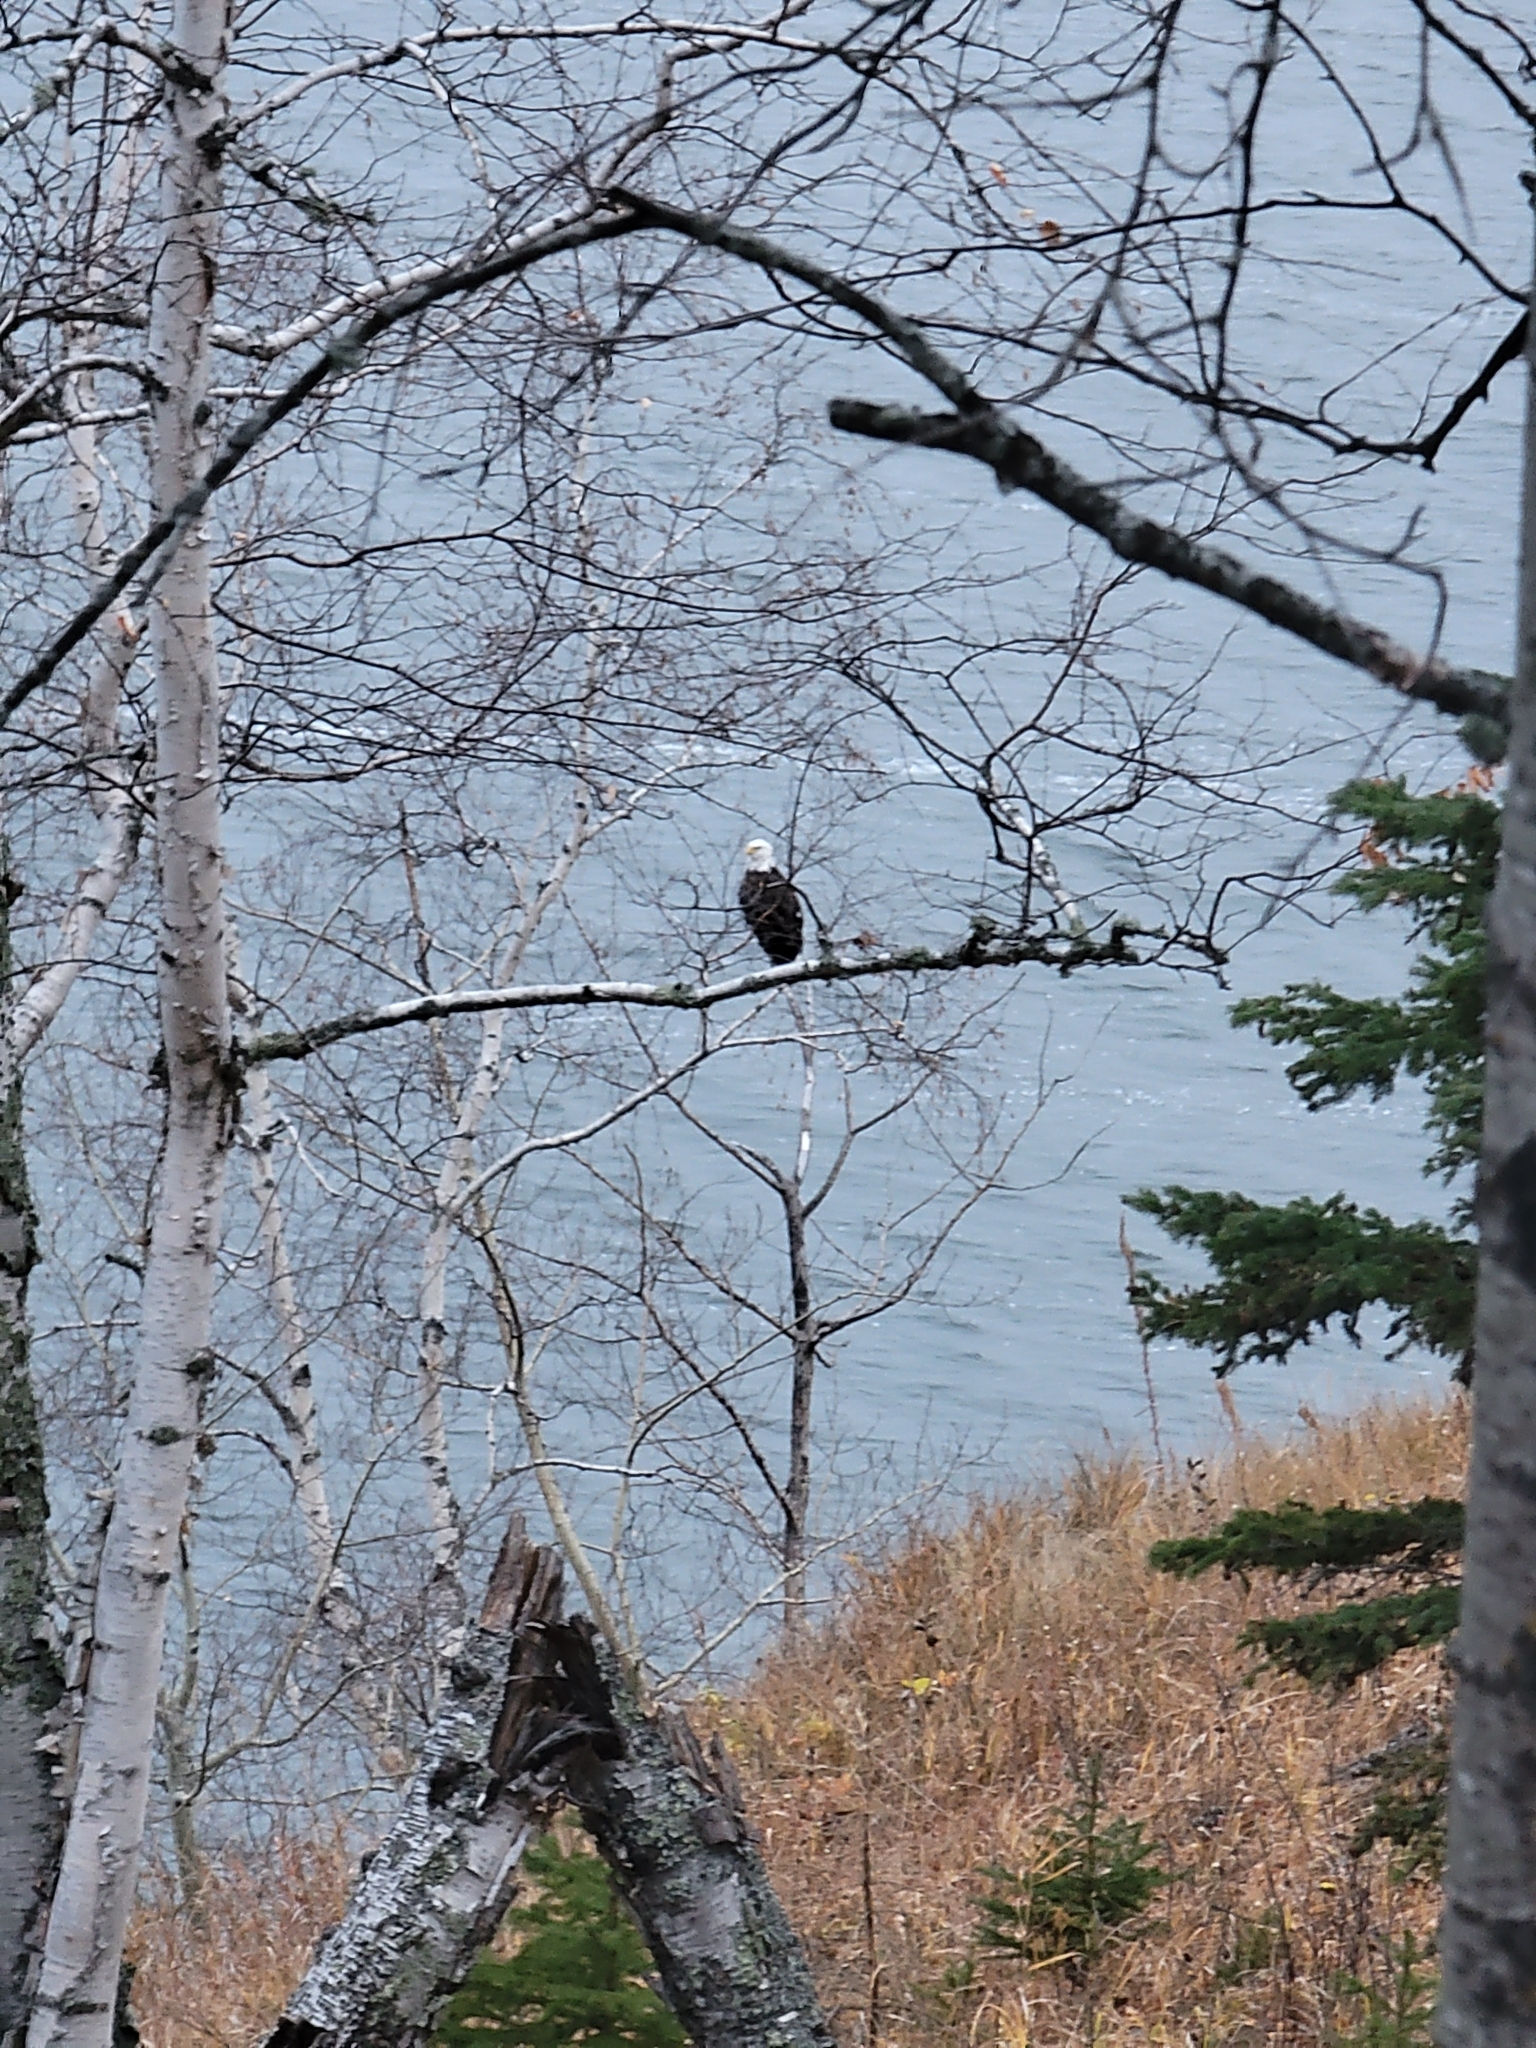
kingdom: Animalia
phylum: Chordata
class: Aves
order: Accipitriformes
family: Accipitridae
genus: Haliaeetus
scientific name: Haliaeetus leucocephalus
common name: Bald eagle
